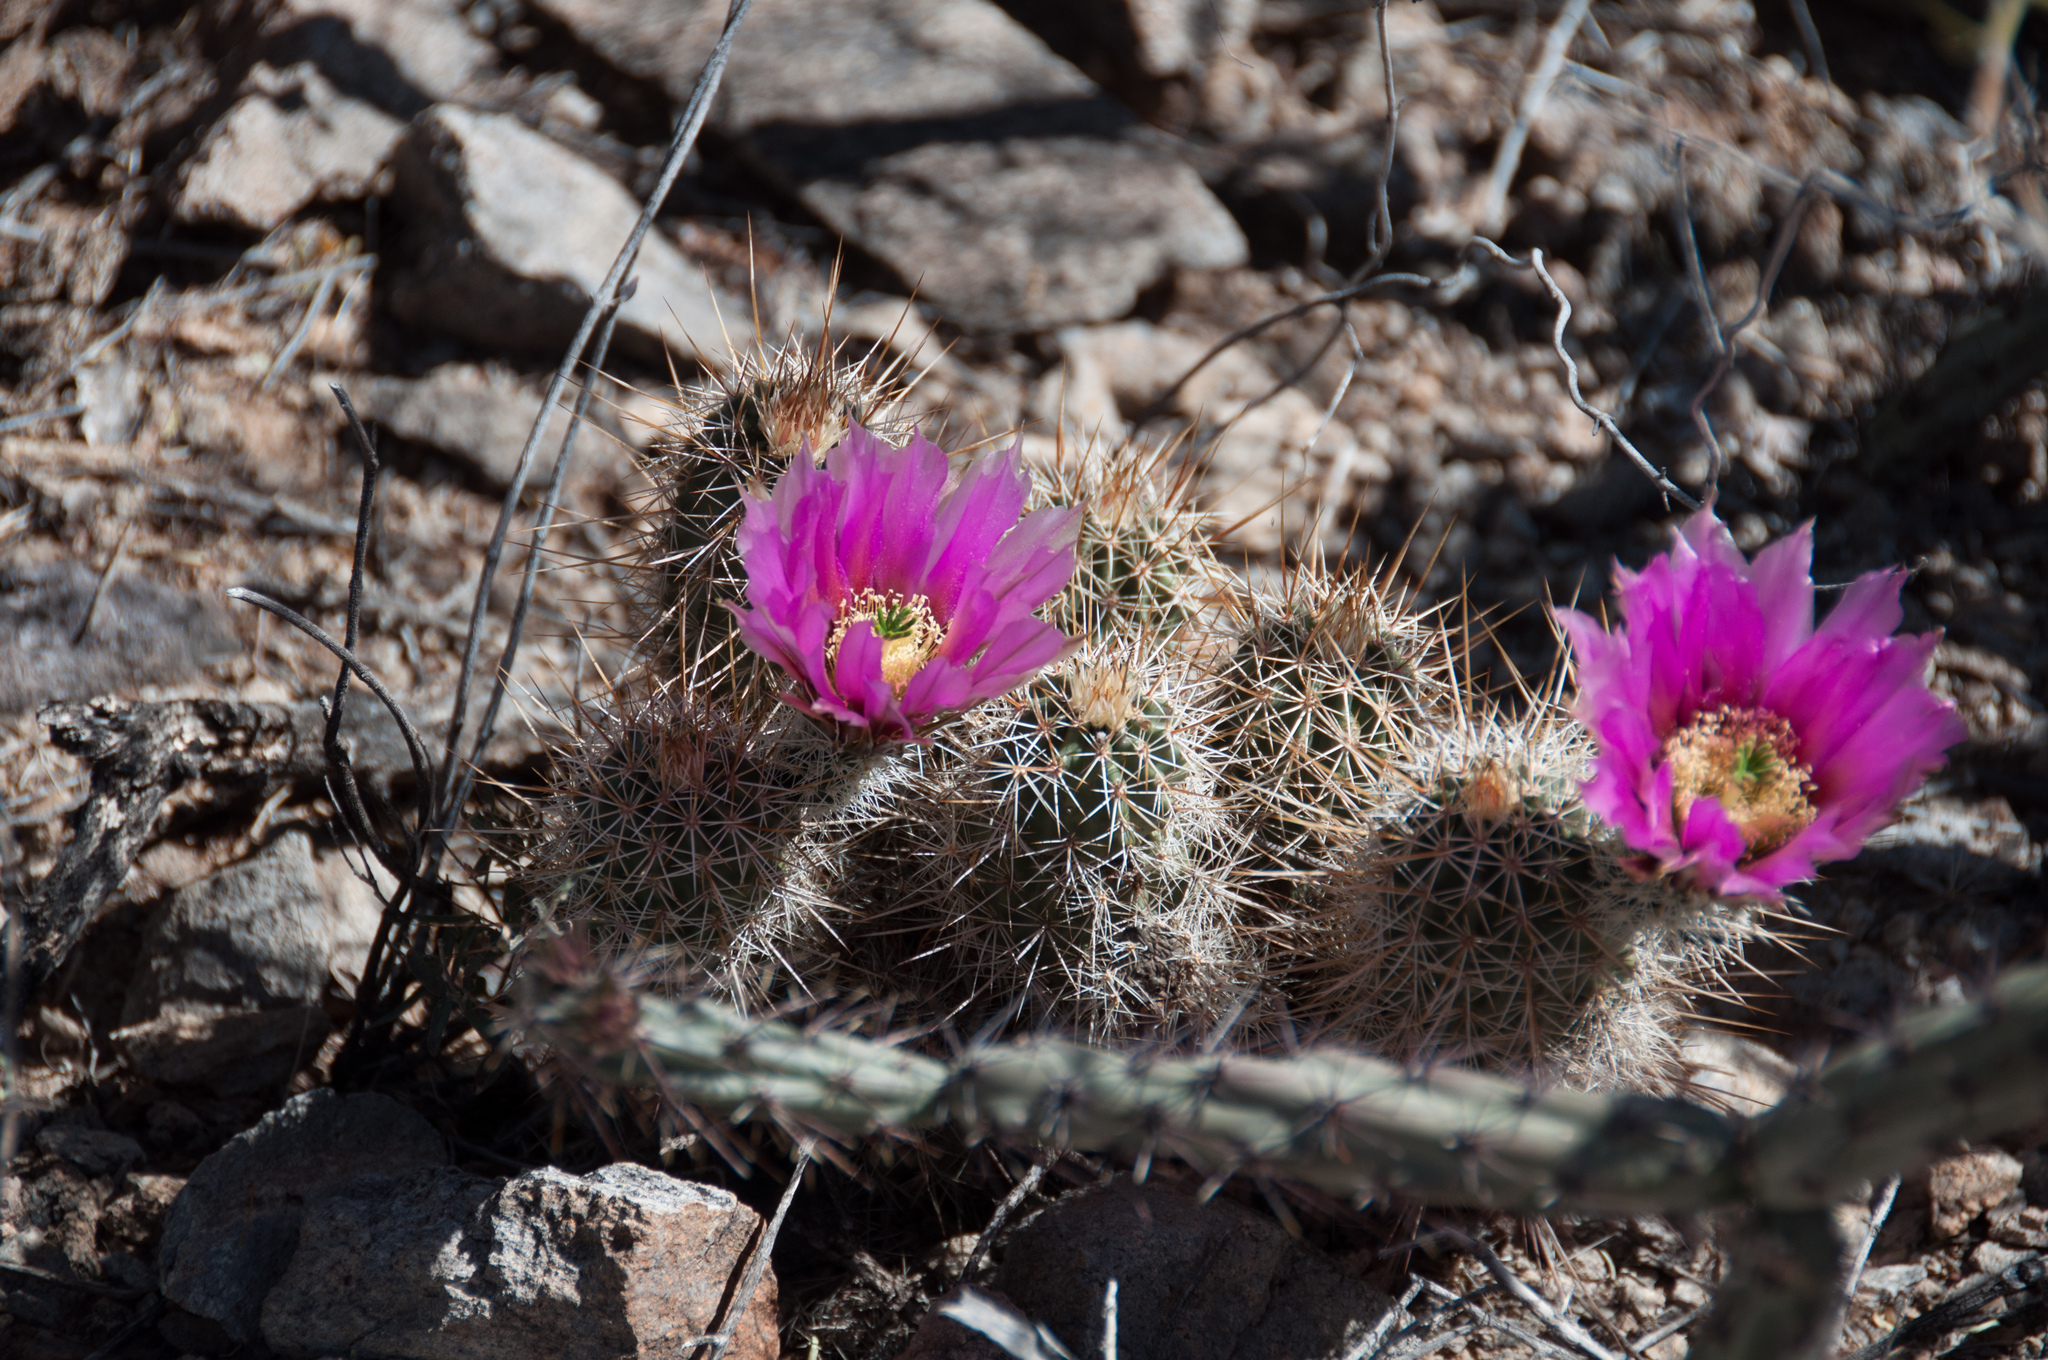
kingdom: Plantae
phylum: Tracheophyta
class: Magnoliopsida
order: Caryophyllales
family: Cactaceae
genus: Echinocereus
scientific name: Echinocereus fasciculatus
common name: Bundle hedgehog
